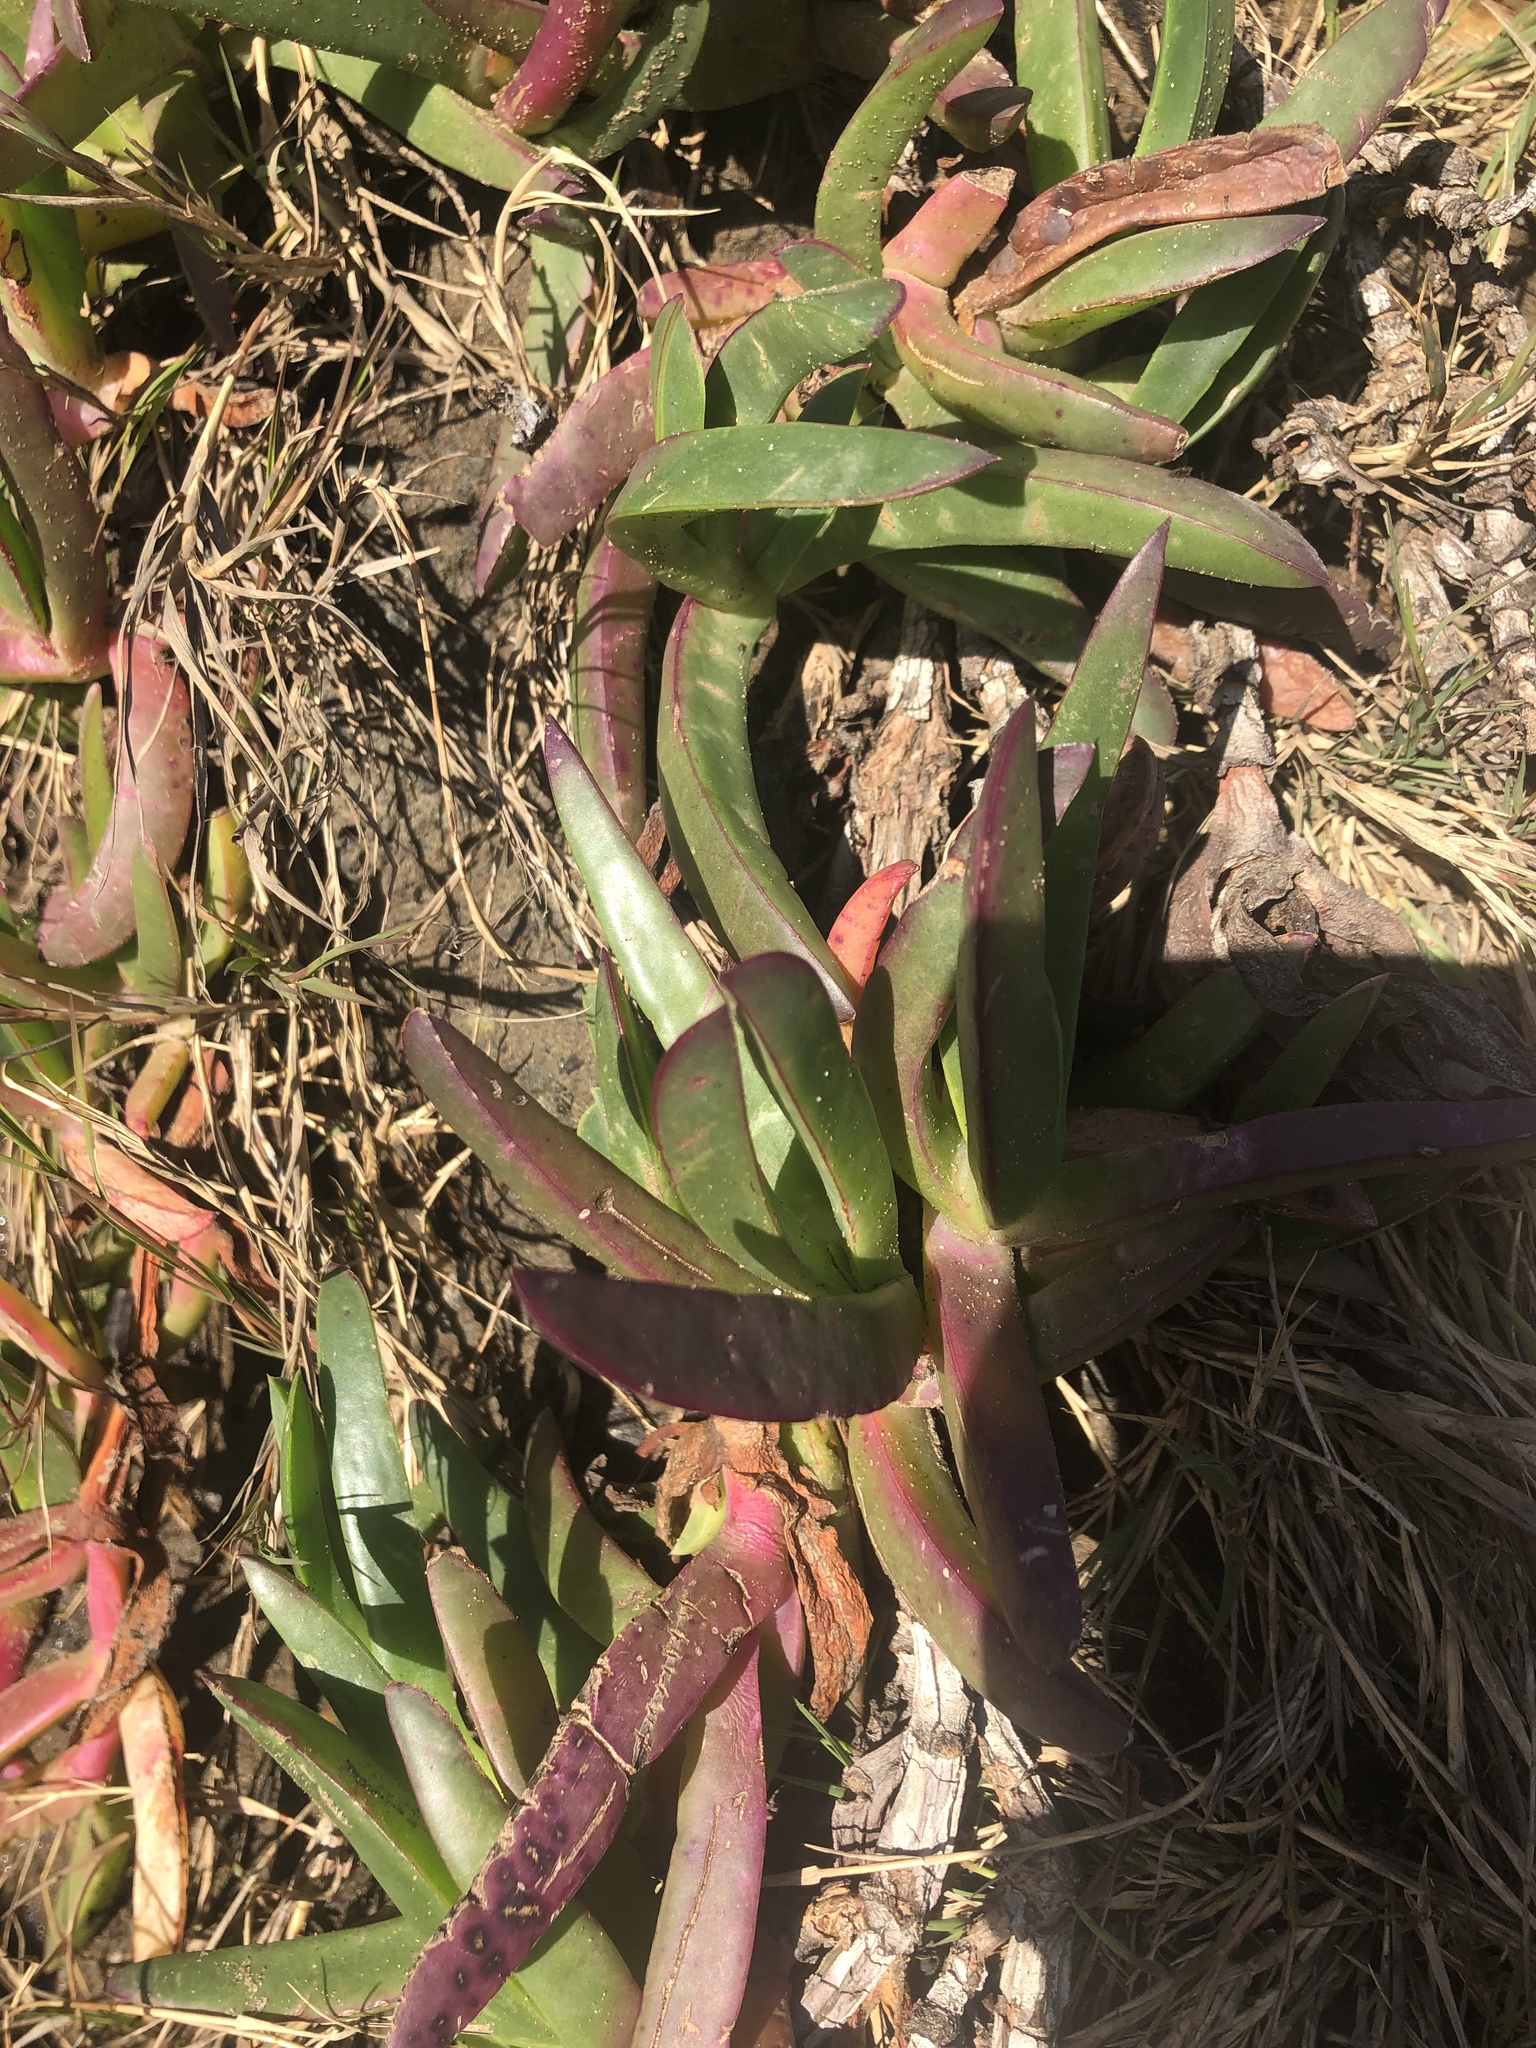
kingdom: Plantae
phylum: Tracheophyta
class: Magnoliopsida
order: Caryophyllales
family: Aizoaceae
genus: Carpobrotus
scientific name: Carpobrotus edulis
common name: Hottentot-fig
